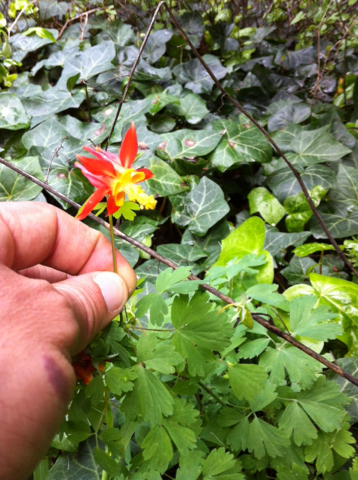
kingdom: Plantae
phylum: Tracheophyta
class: Magnoliopsida
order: Ranunculales
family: Ranunculaceae
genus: Aquilegia
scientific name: Aquilegia formosa
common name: Sitka columbine
